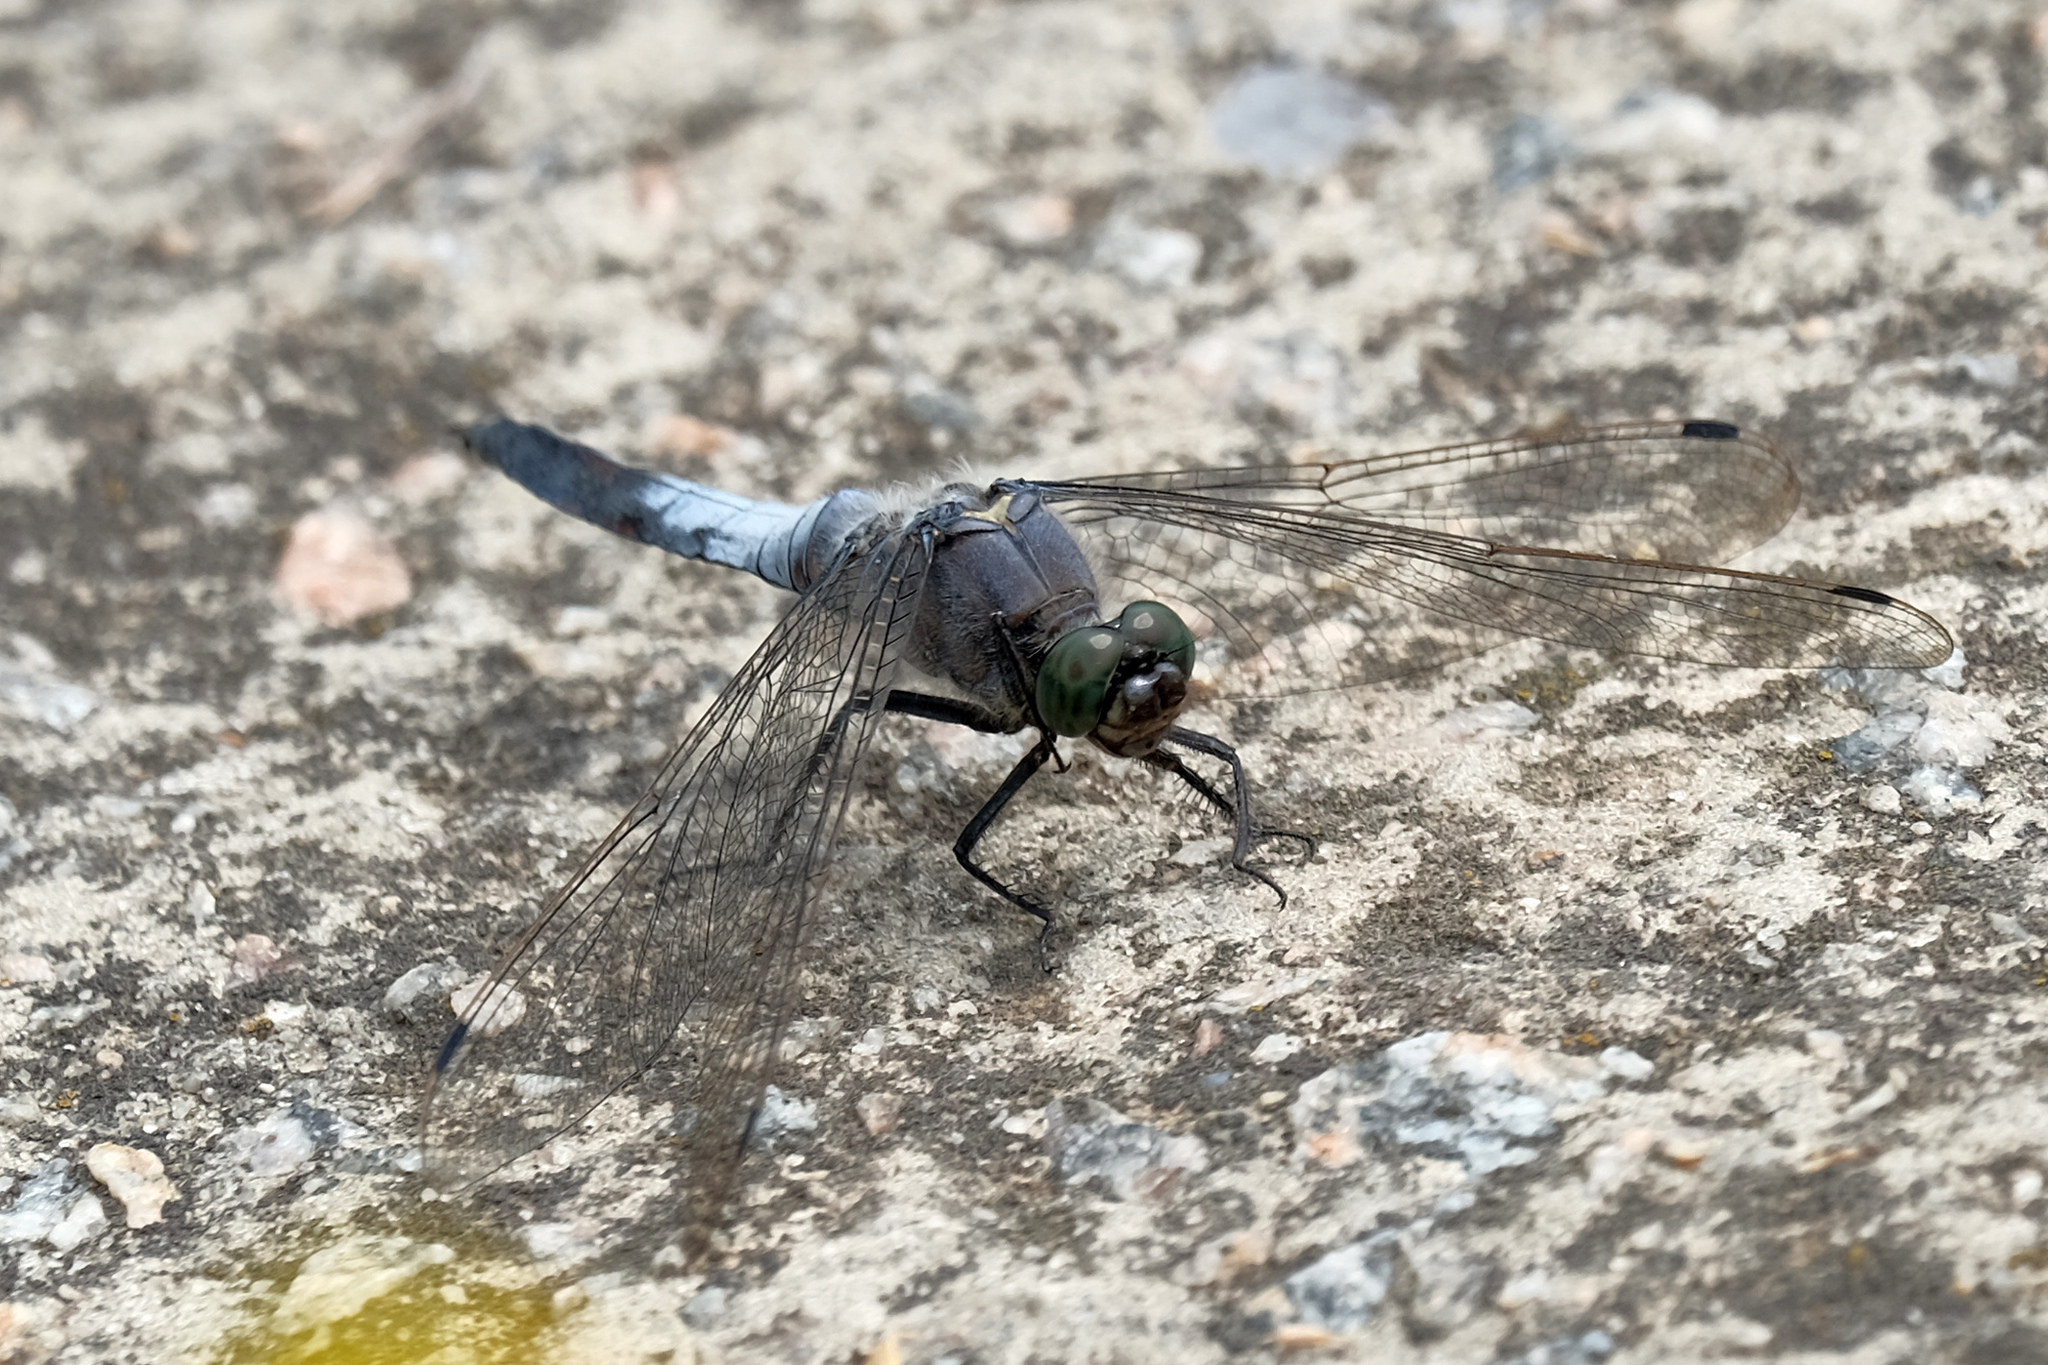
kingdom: Animalia
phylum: Arthropoda
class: Insecta
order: Odonata
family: Libellulidae
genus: Orthetrum
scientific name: Orthetrum cancellatum
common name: Black-tailed skimmer
